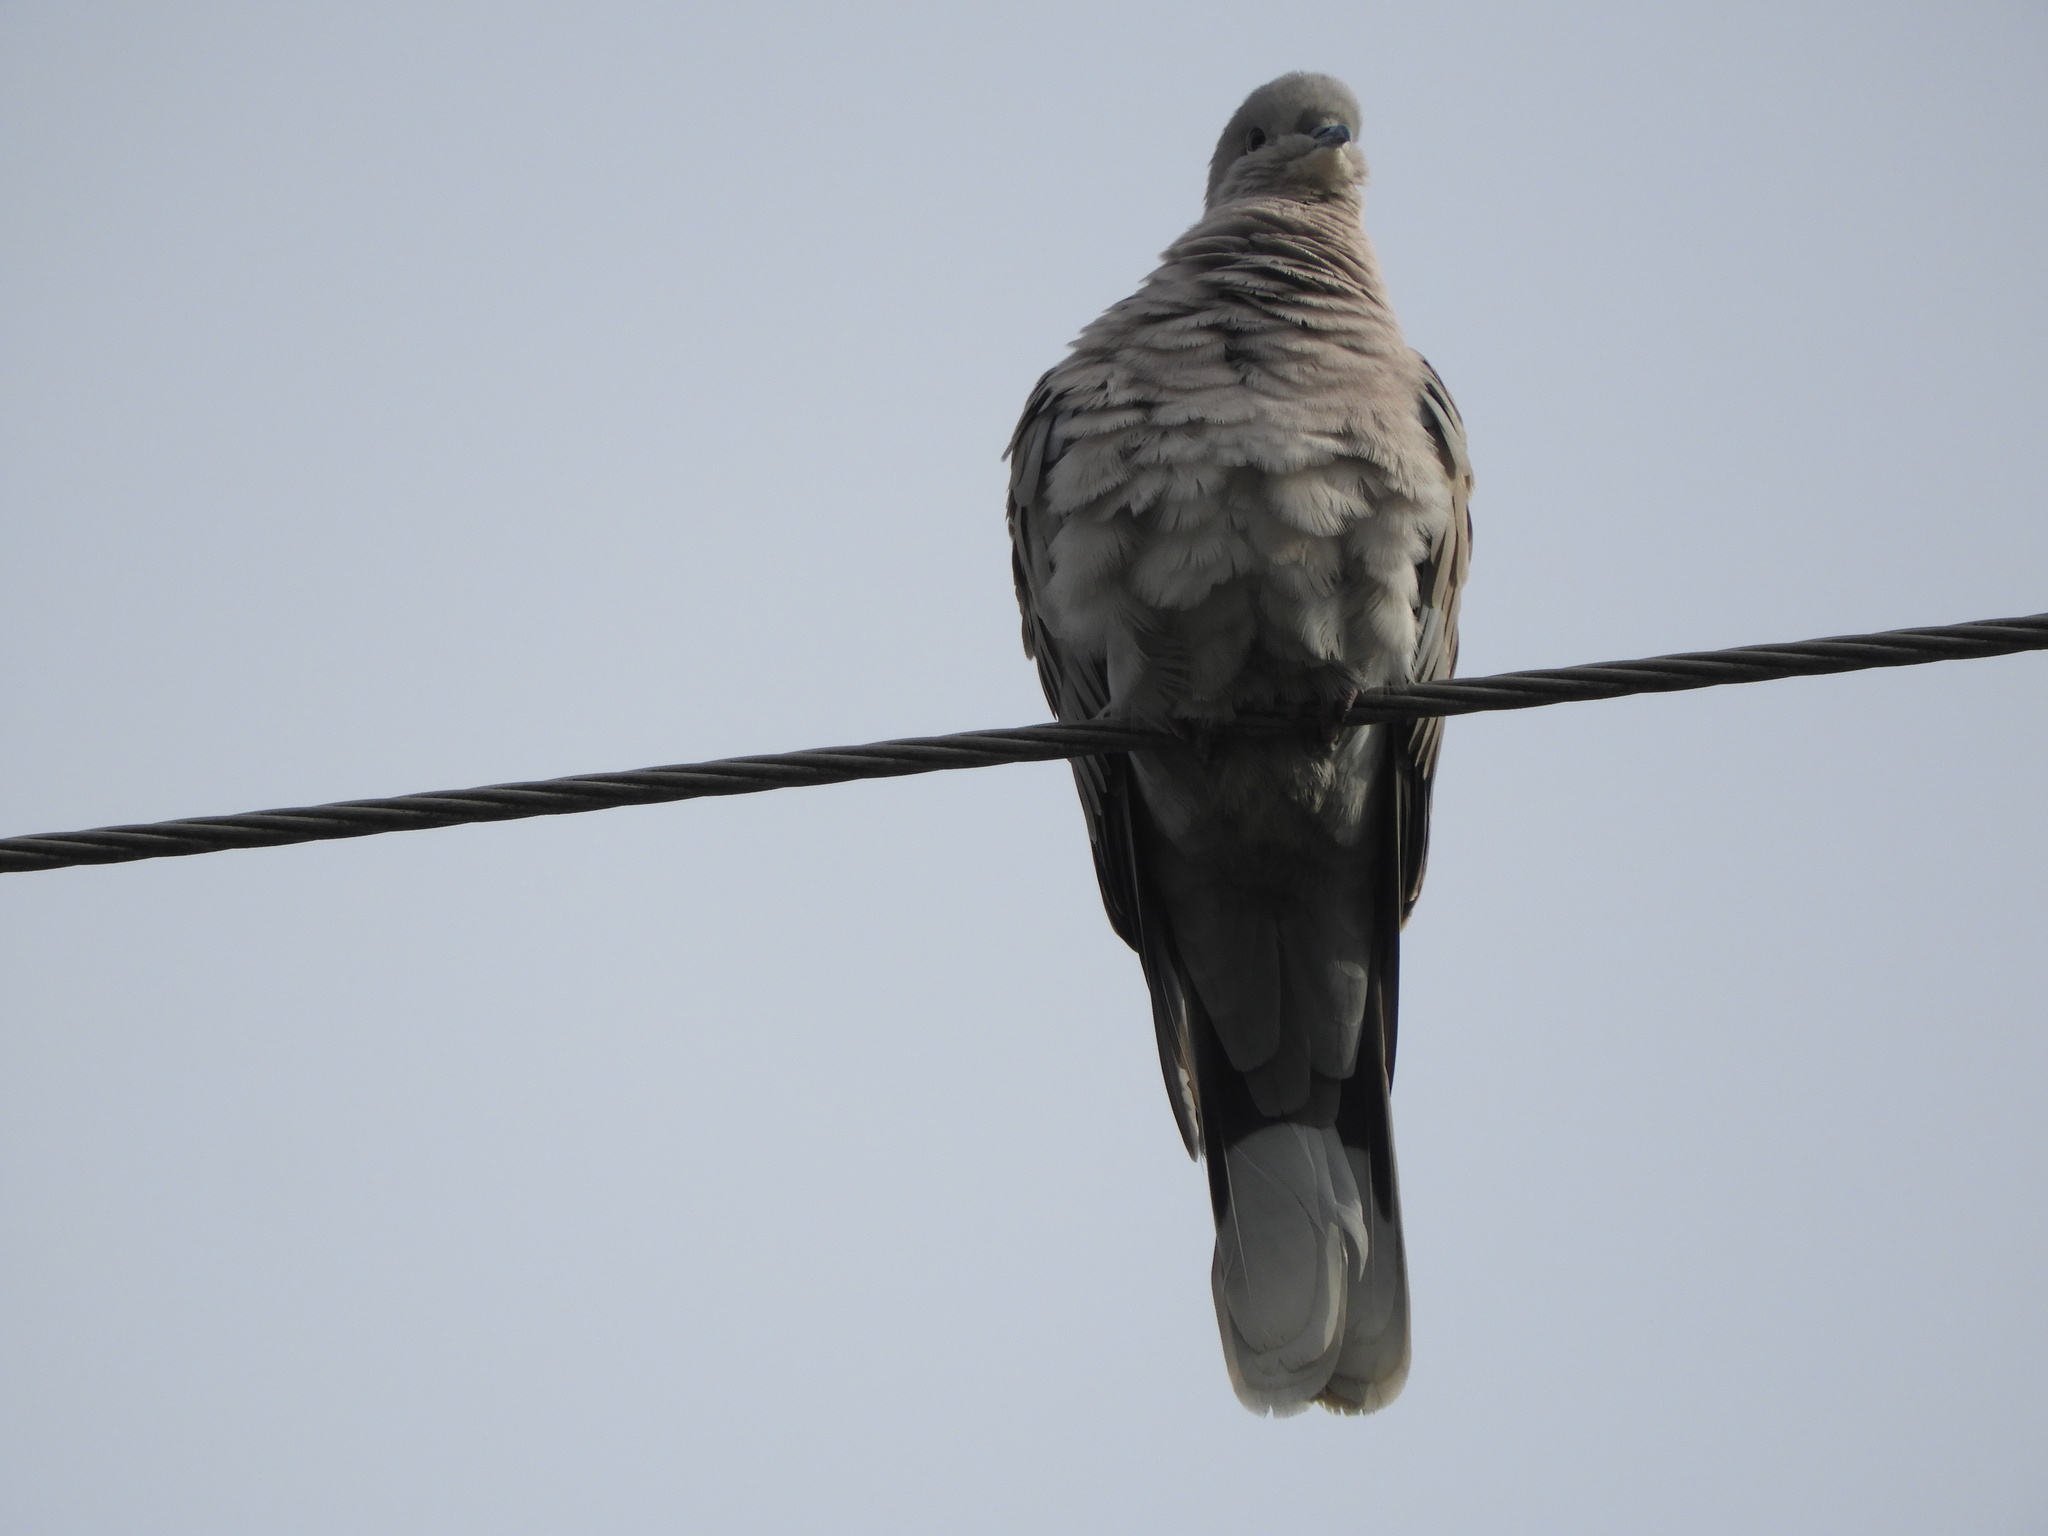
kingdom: Animalia
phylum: Chordata
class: Aves
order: Columbiformes
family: Columbidae
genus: Streptopelia
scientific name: Streptopelia decaocto
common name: Eurasian collared dove
